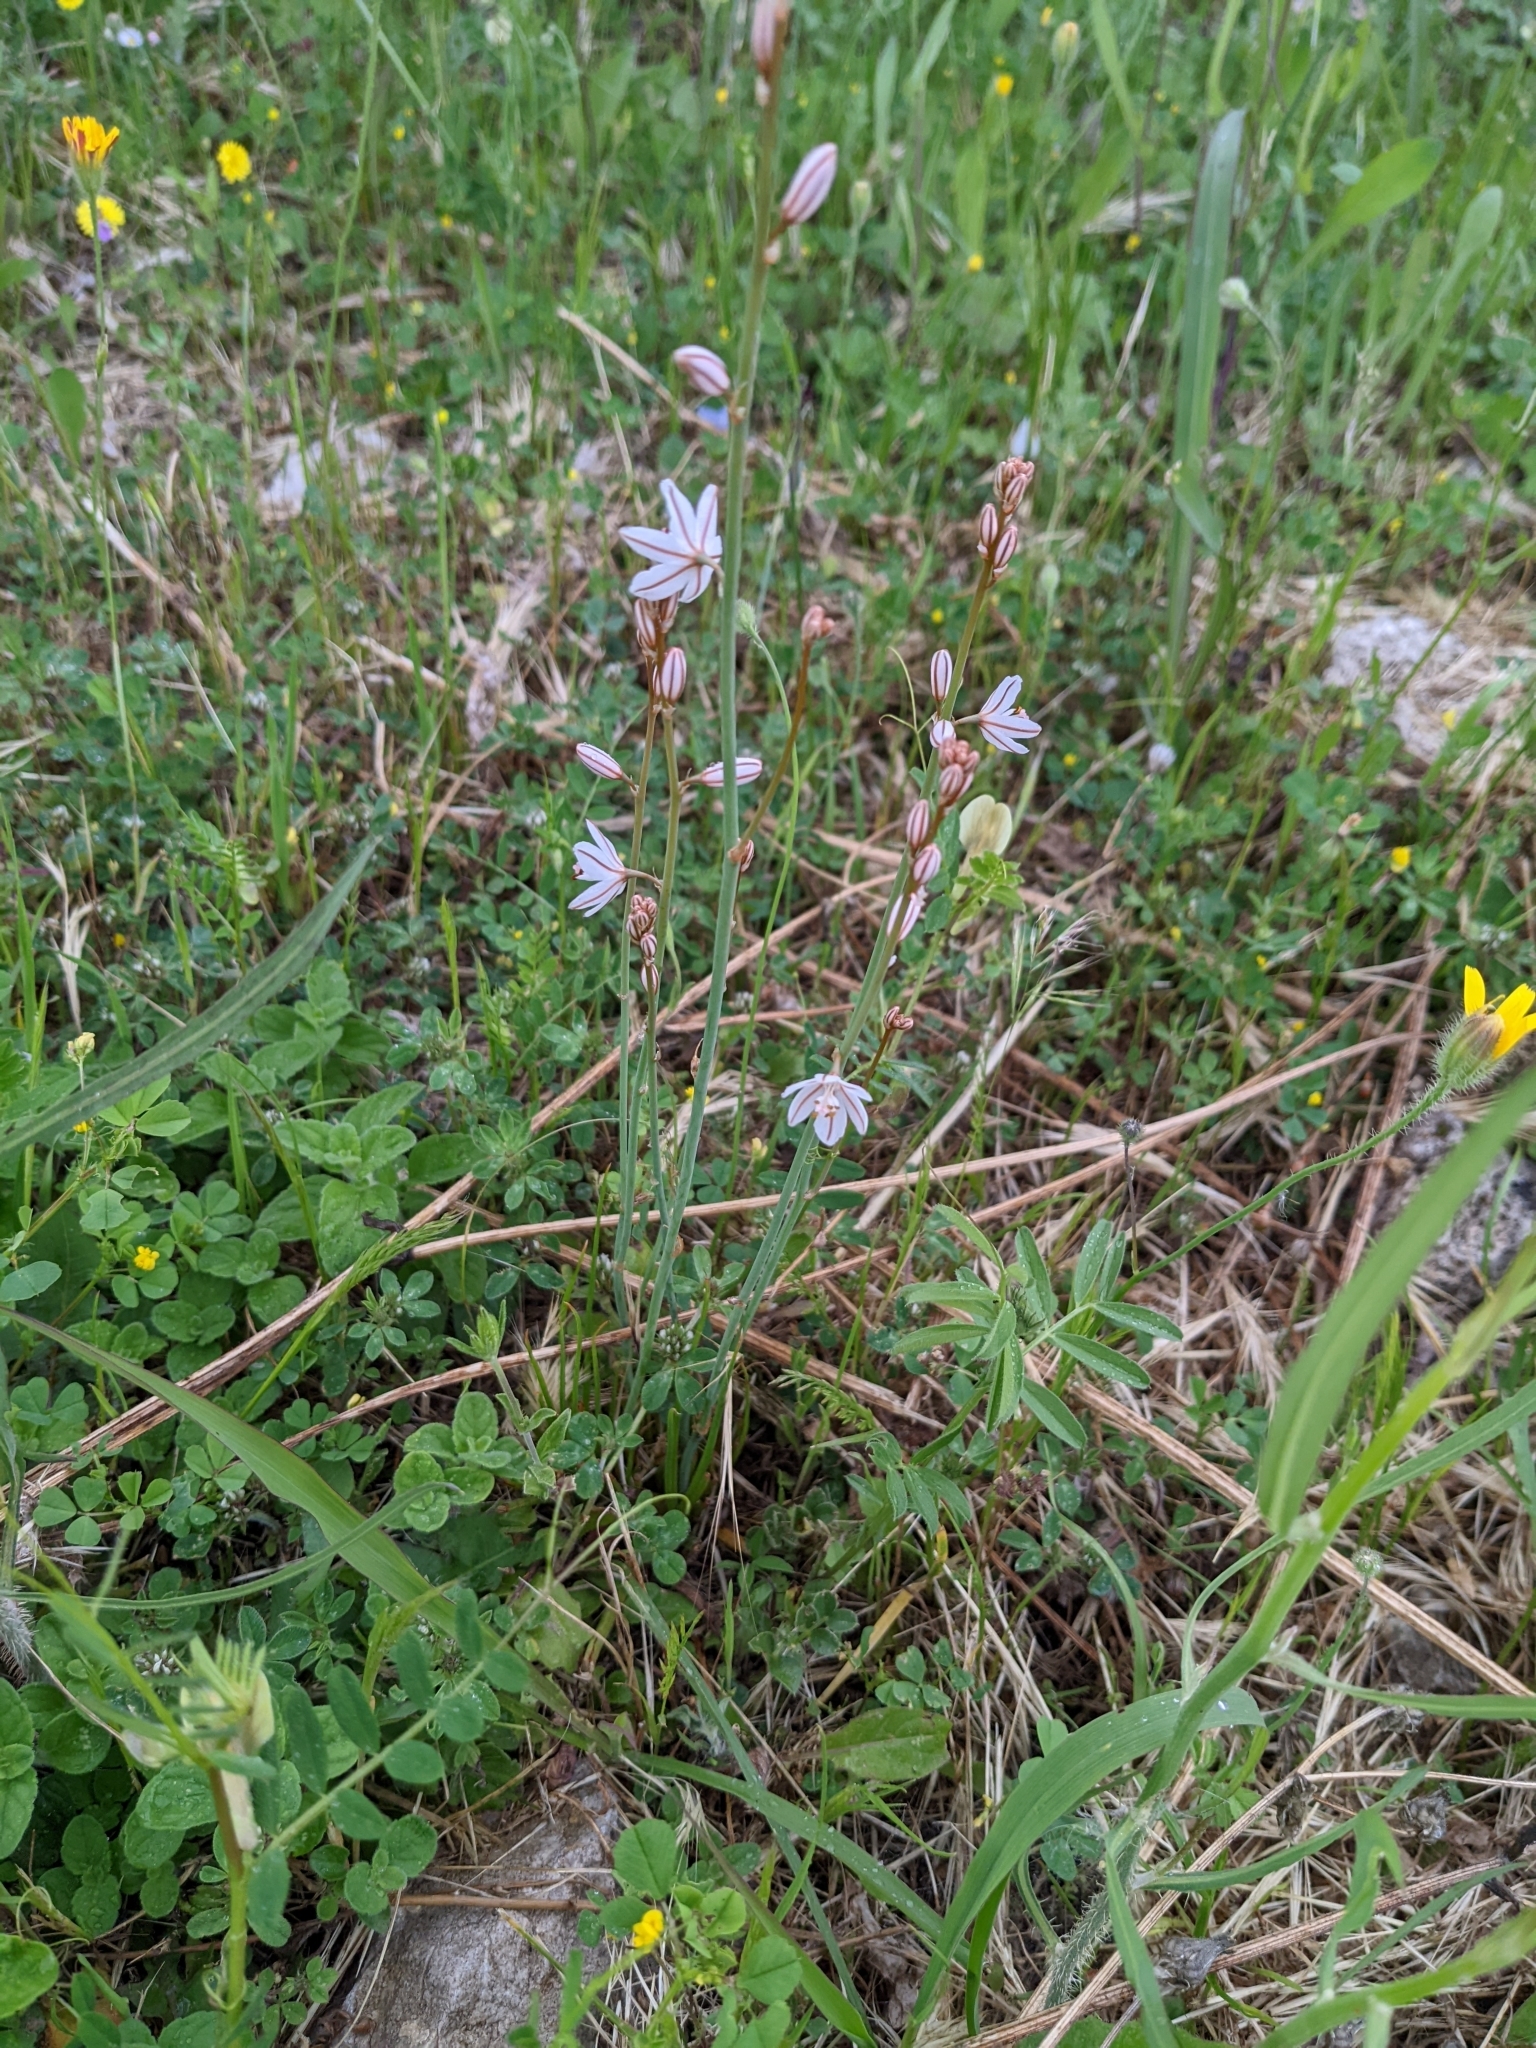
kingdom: Plantae
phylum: Tracheophyta
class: Liliopsida
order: Asparagales
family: Asphodelaceae
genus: Asphodelus
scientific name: Asphodelus fistulosus
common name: Onionweed
